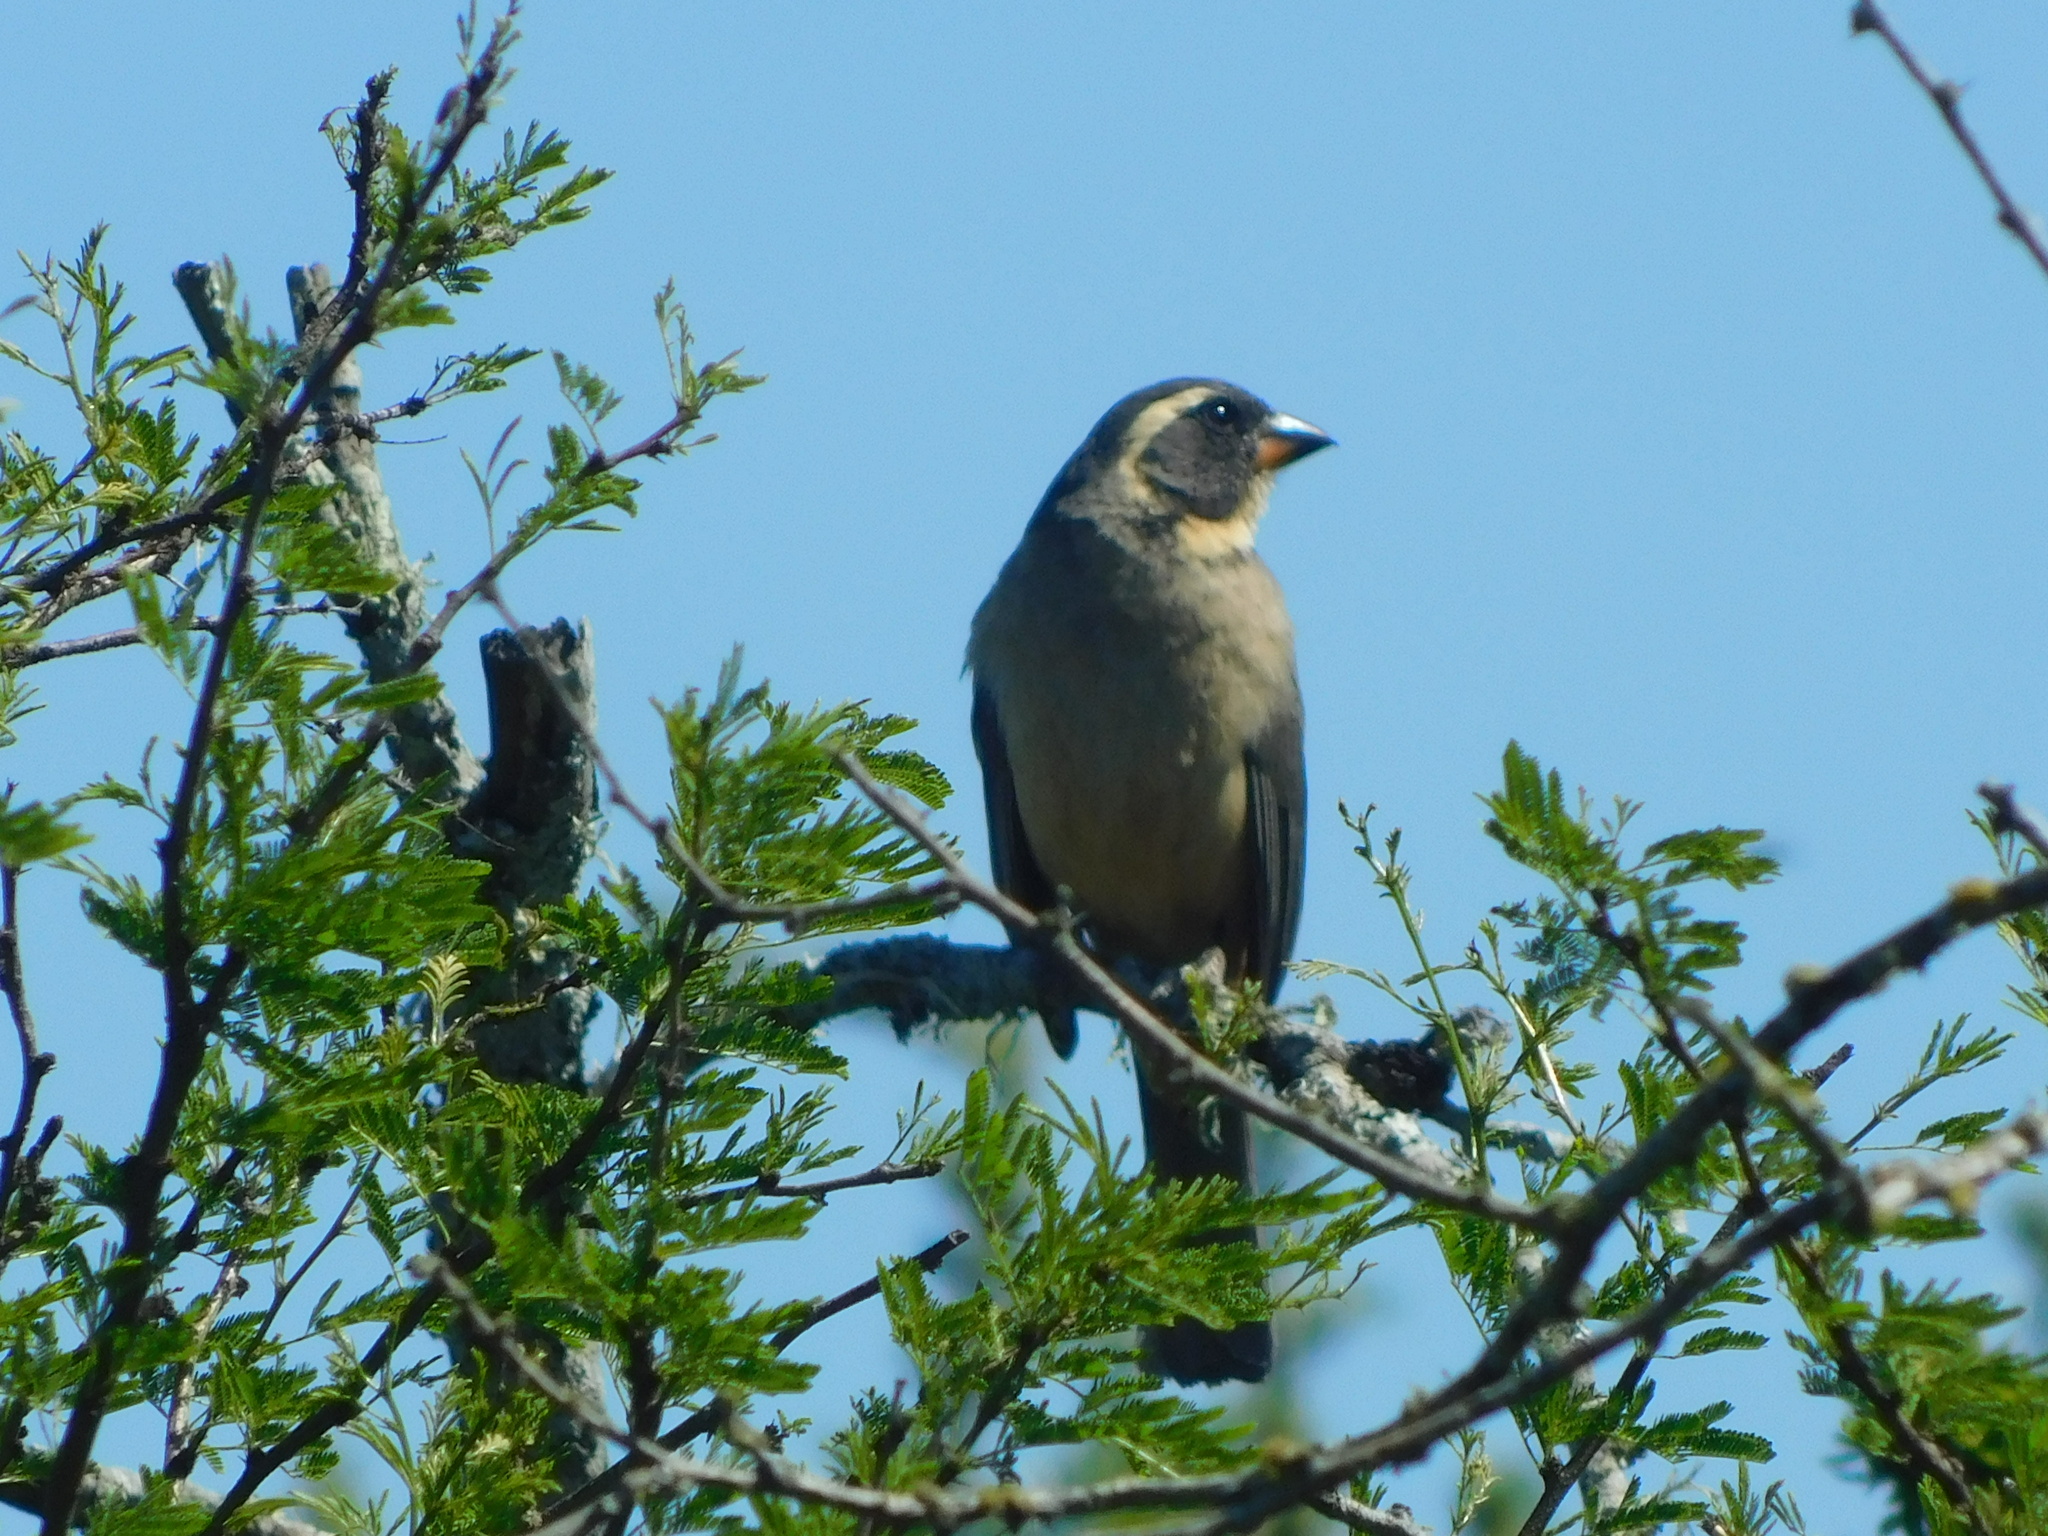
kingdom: Animalia
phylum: Chordata
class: Aves
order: Passeriformes
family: Thraupidae
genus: Saltator
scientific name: Saltator aurantiirostris
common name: Golden-billed saltator
